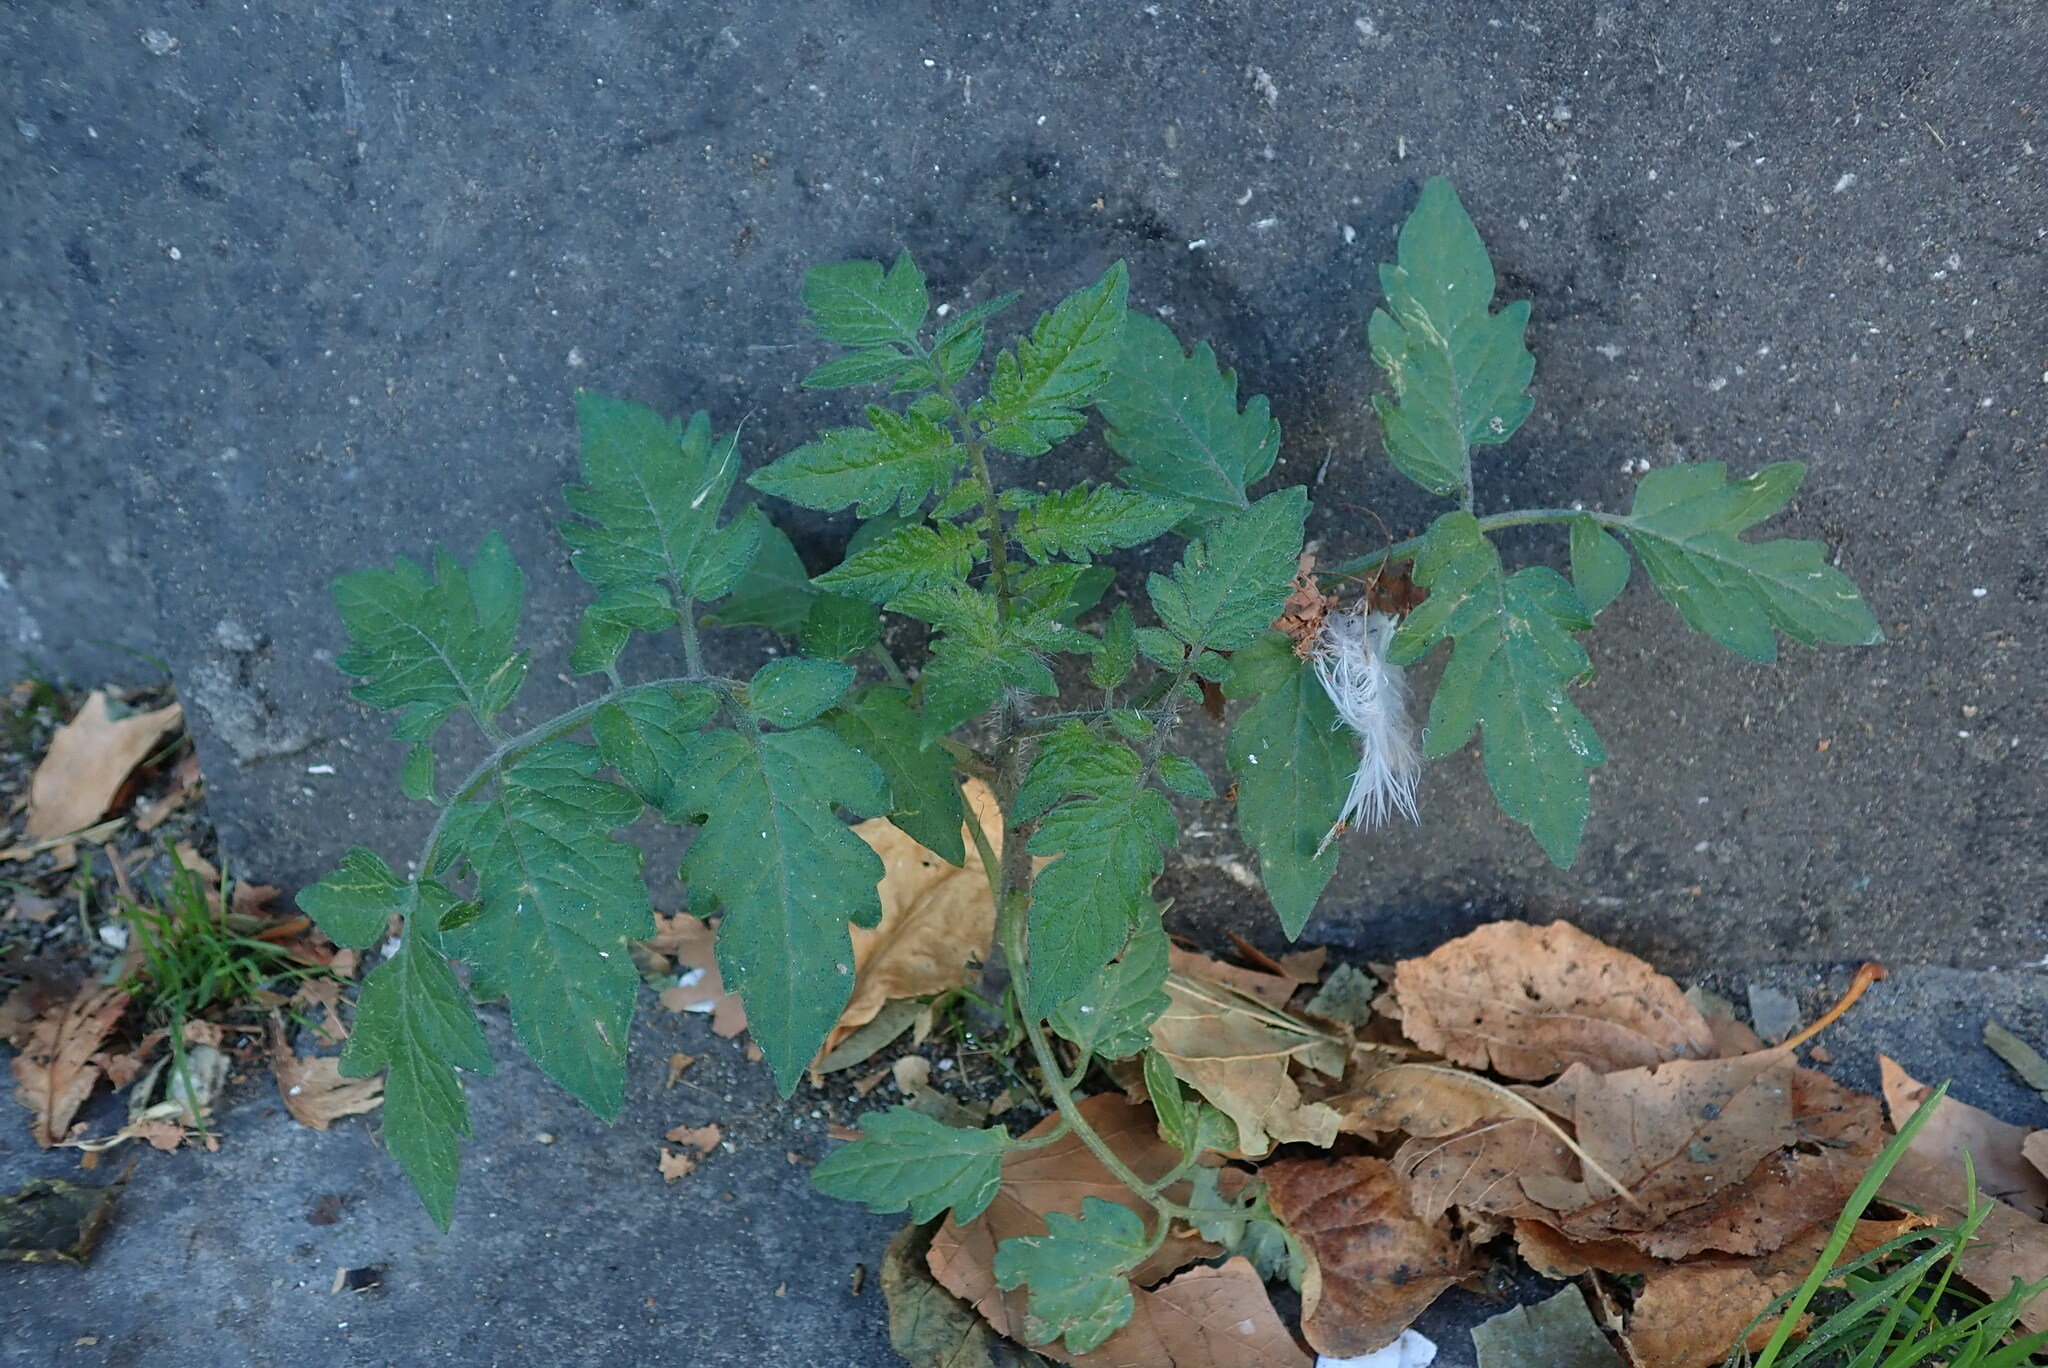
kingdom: Plantae
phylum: Tracheophyta
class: Magnoliopsida
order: Solanales
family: Solanaceae
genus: Solanum
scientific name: Solanum lycopersicum
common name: Garden tomato
